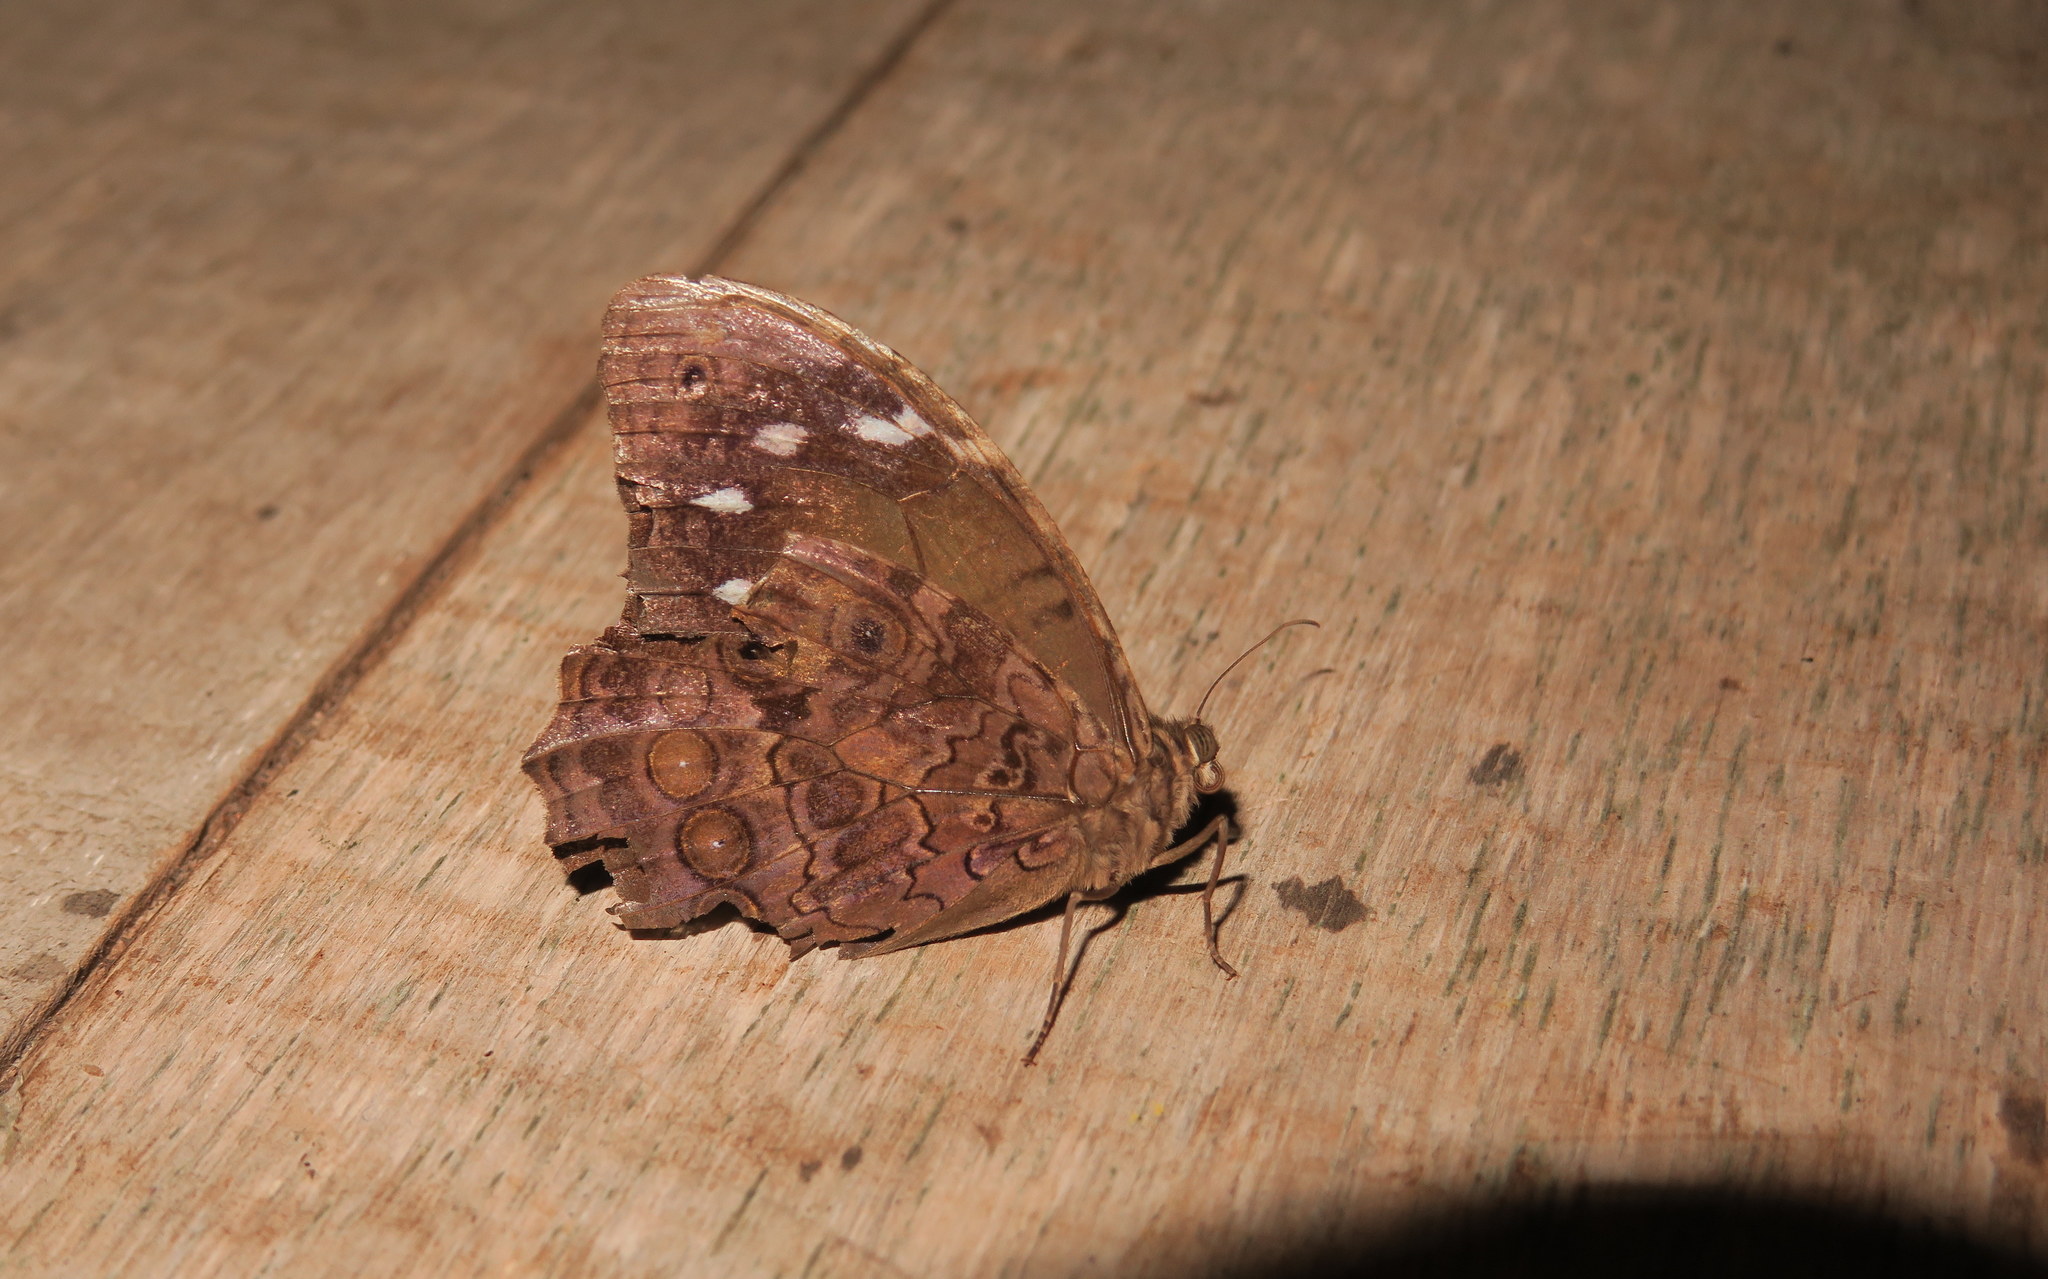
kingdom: Animalia
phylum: Arthropoda
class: Insecta
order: Lepidoptera
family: Nymphalidae
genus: Manataria
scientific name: Manataria maculata
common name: White-spotted satyr
